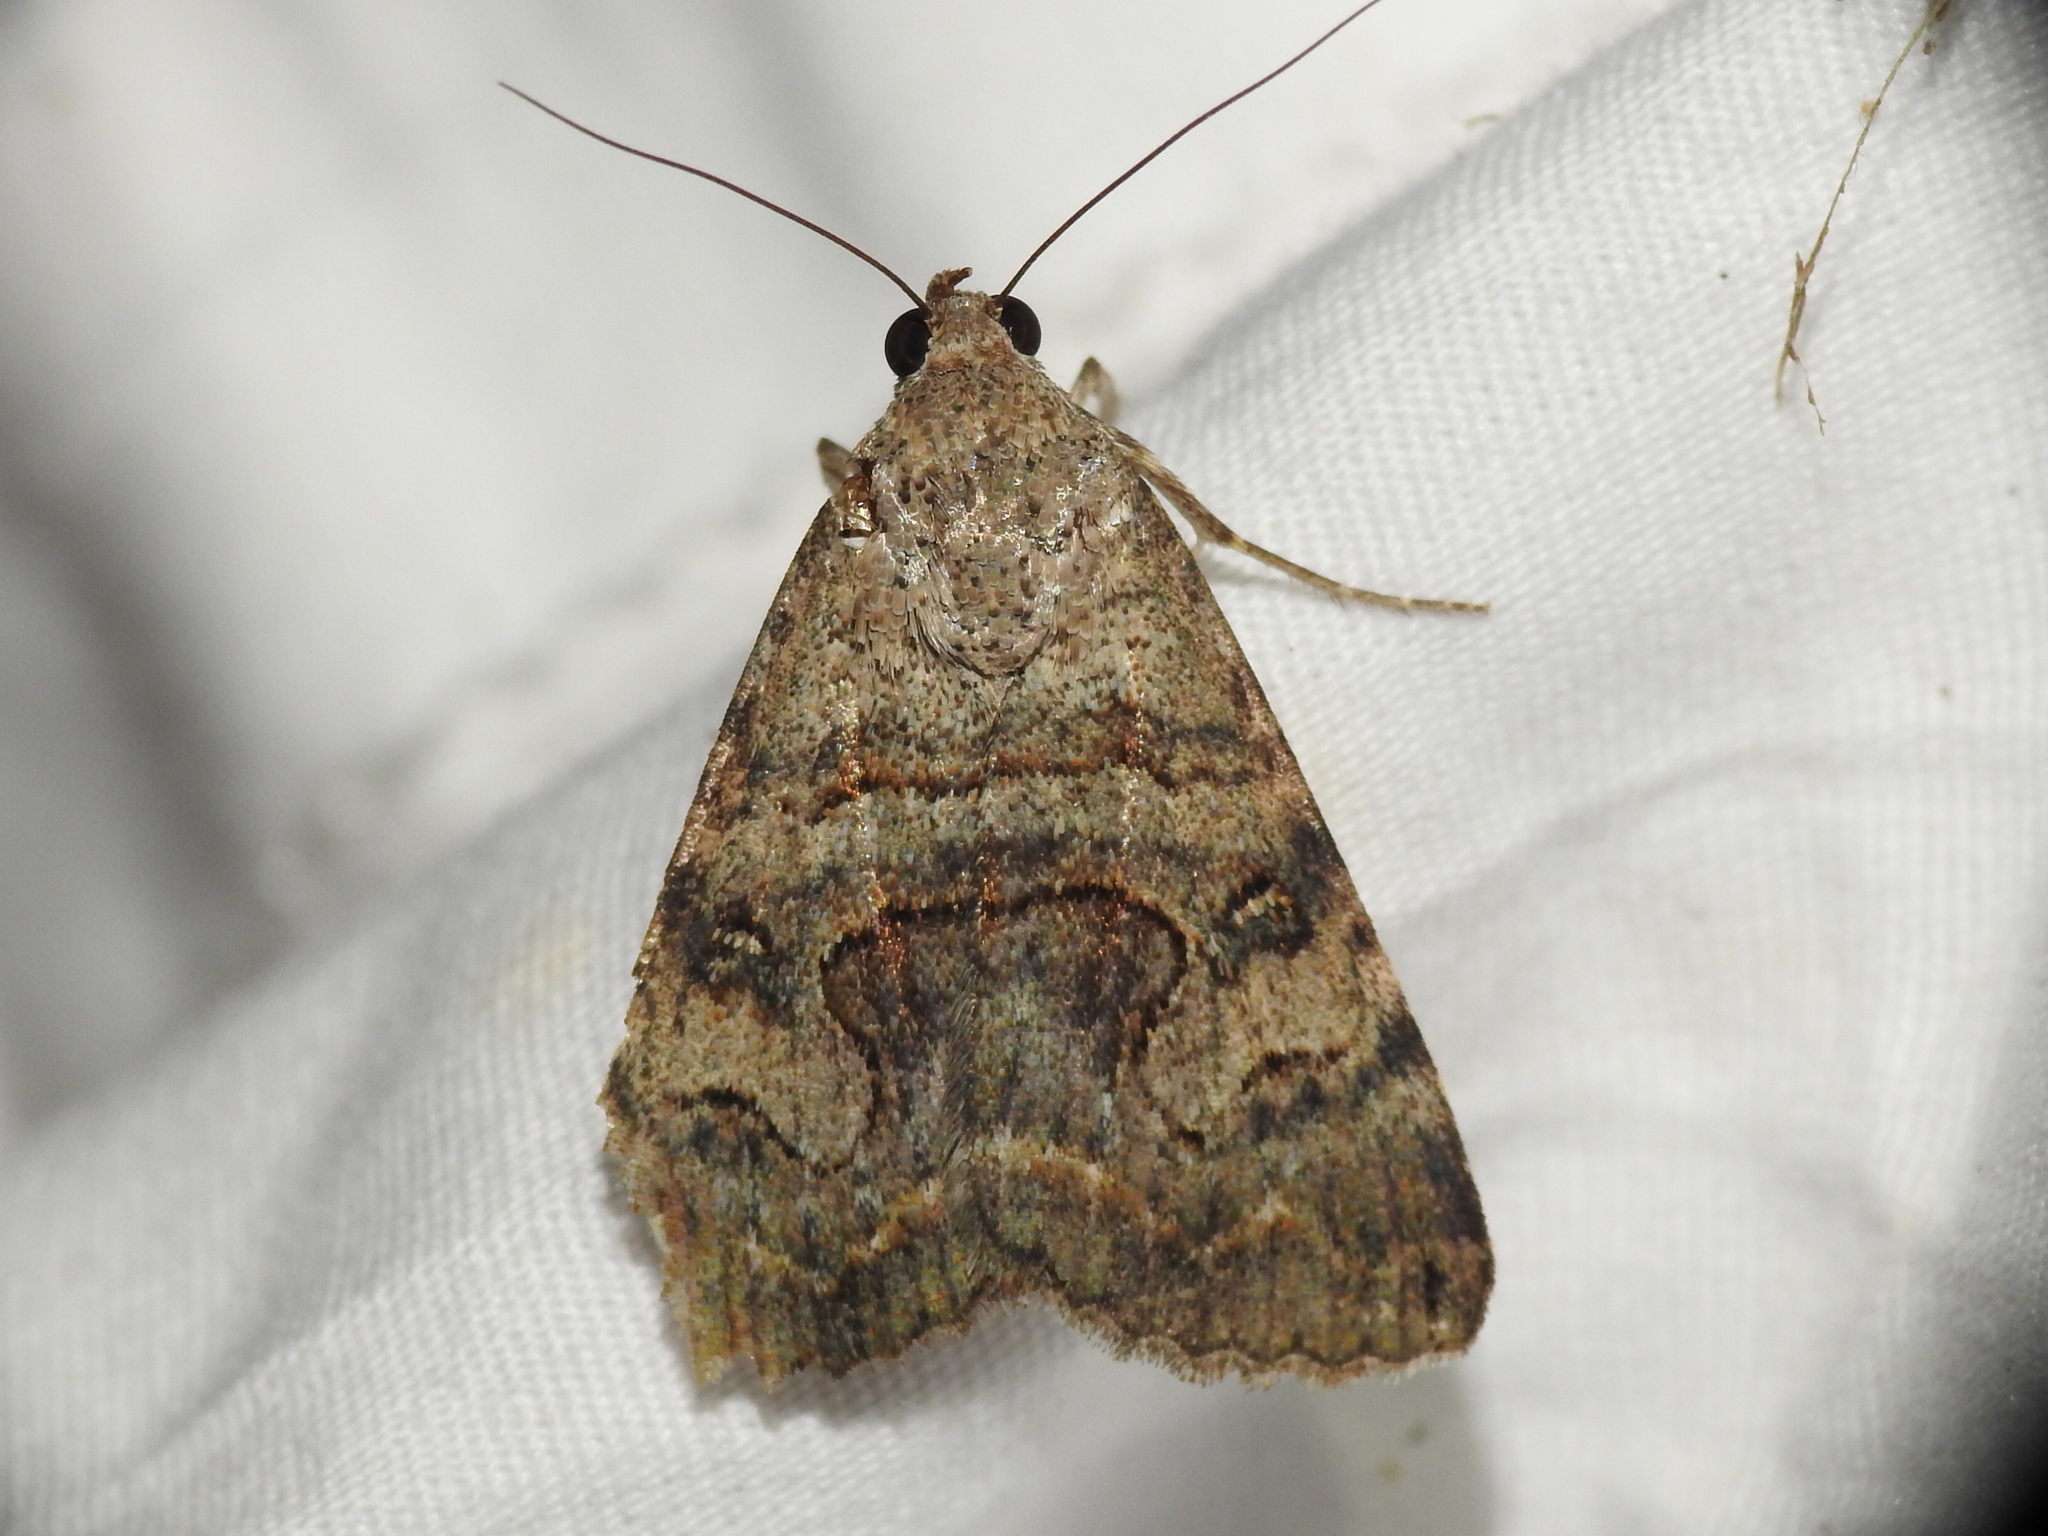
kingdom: Animalia
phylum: Arthropoda
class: Insecta
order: Lepidoptera
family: Erebidae
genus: Bulia
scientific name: Bulia deducta
